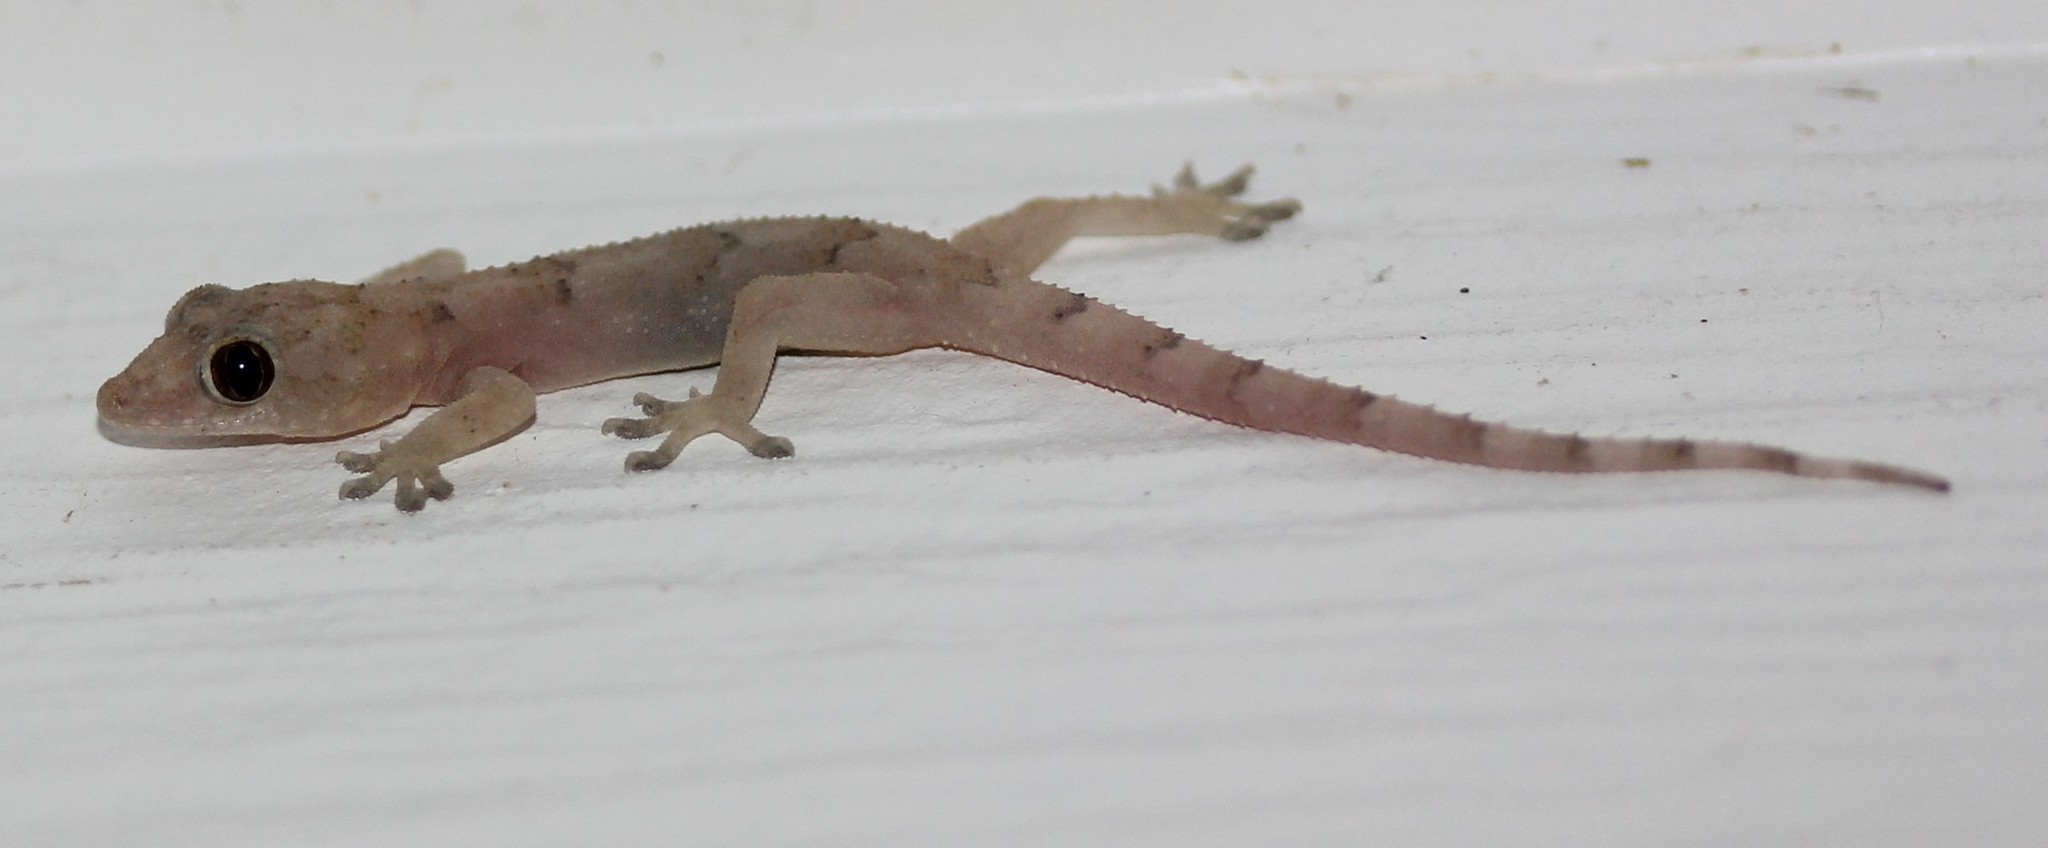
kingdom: Animalia
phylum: Chordata
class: Squamata
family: Gekkonidae
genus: Hemidactylus
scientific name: Hemidactylus mabouia
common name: House gecko
